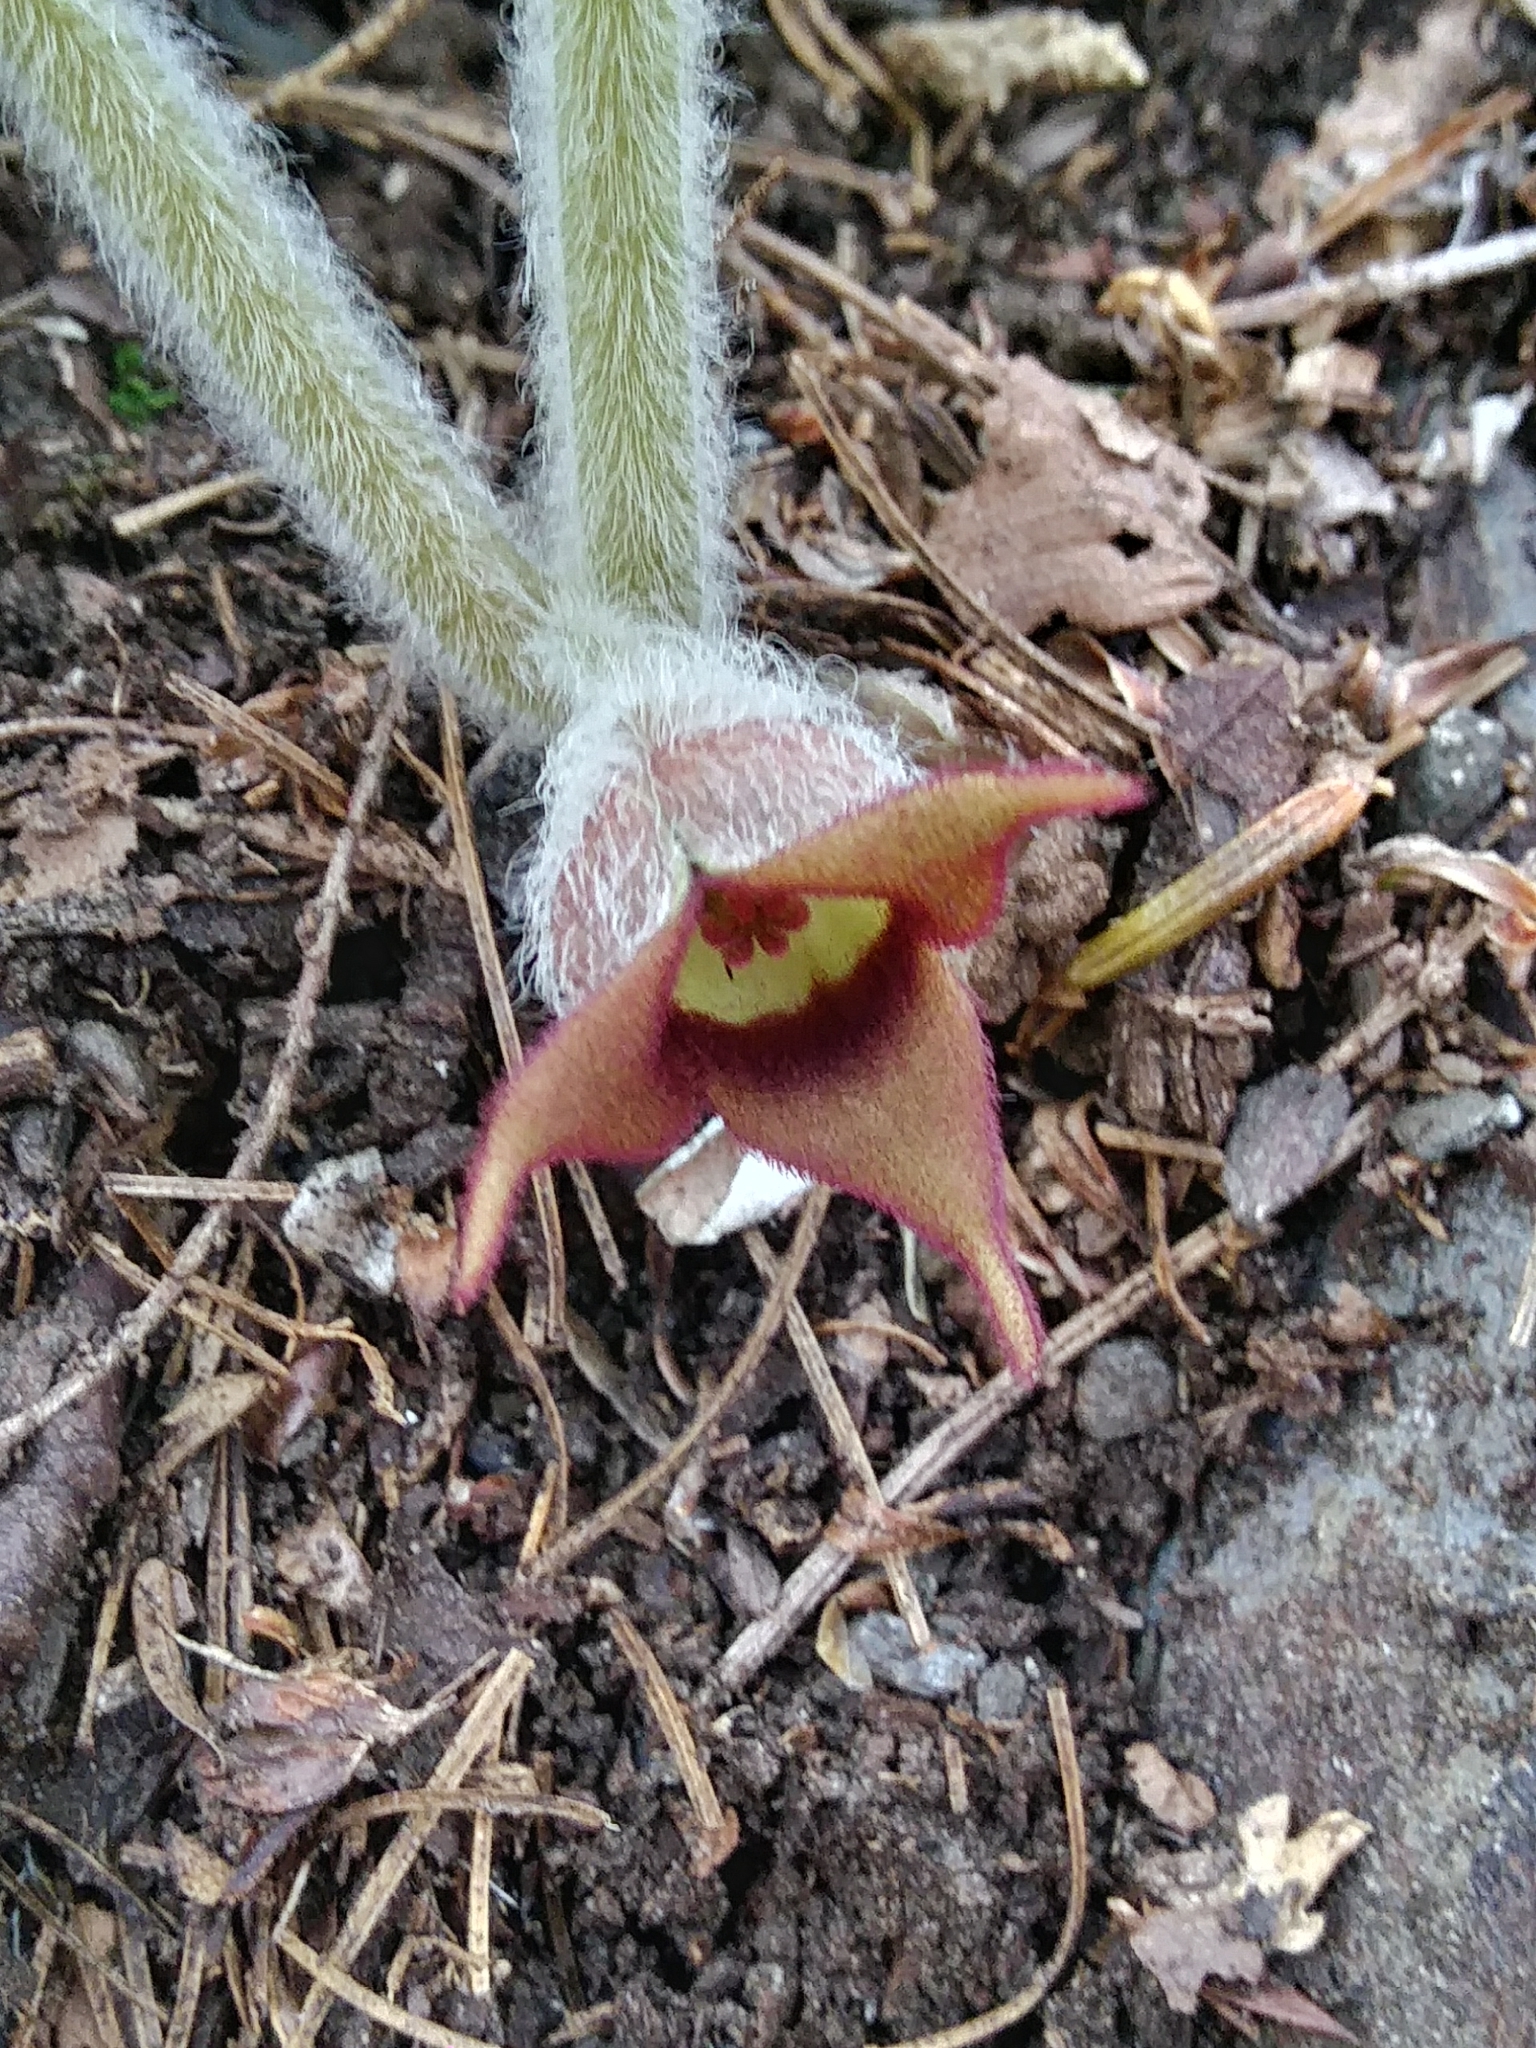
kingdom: Plantae
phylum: Tracheophyta
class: Magnoliopsida
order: Piperales
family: Aristolochiaceae
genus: Asarum
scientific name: Asarum canadense
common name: Wild ginger
